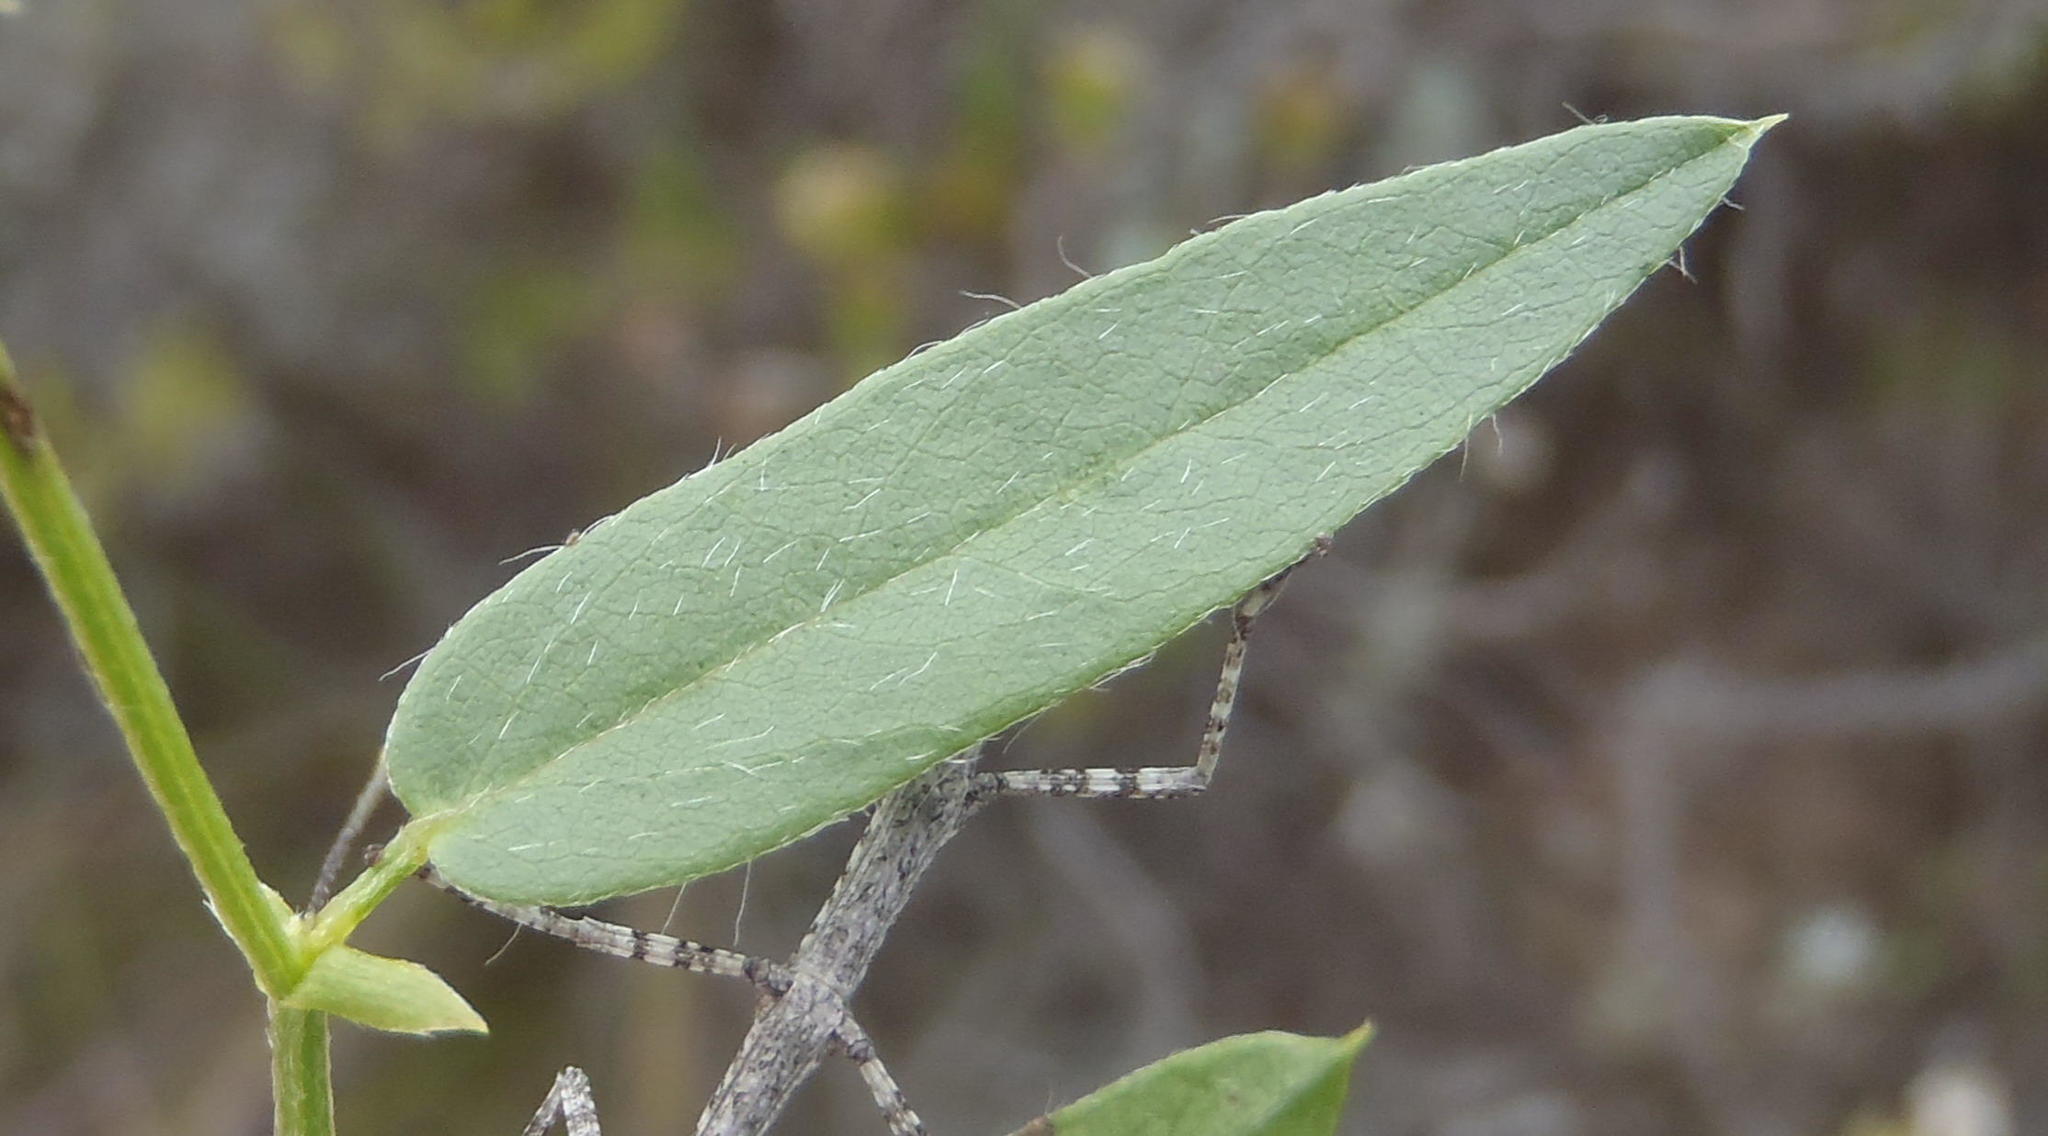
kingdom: Plantae
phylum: Tracheophyta
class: Magnoliopsida
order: Fabales
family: Fabaceae
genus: Psoralea
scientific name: Psoralea plauta
